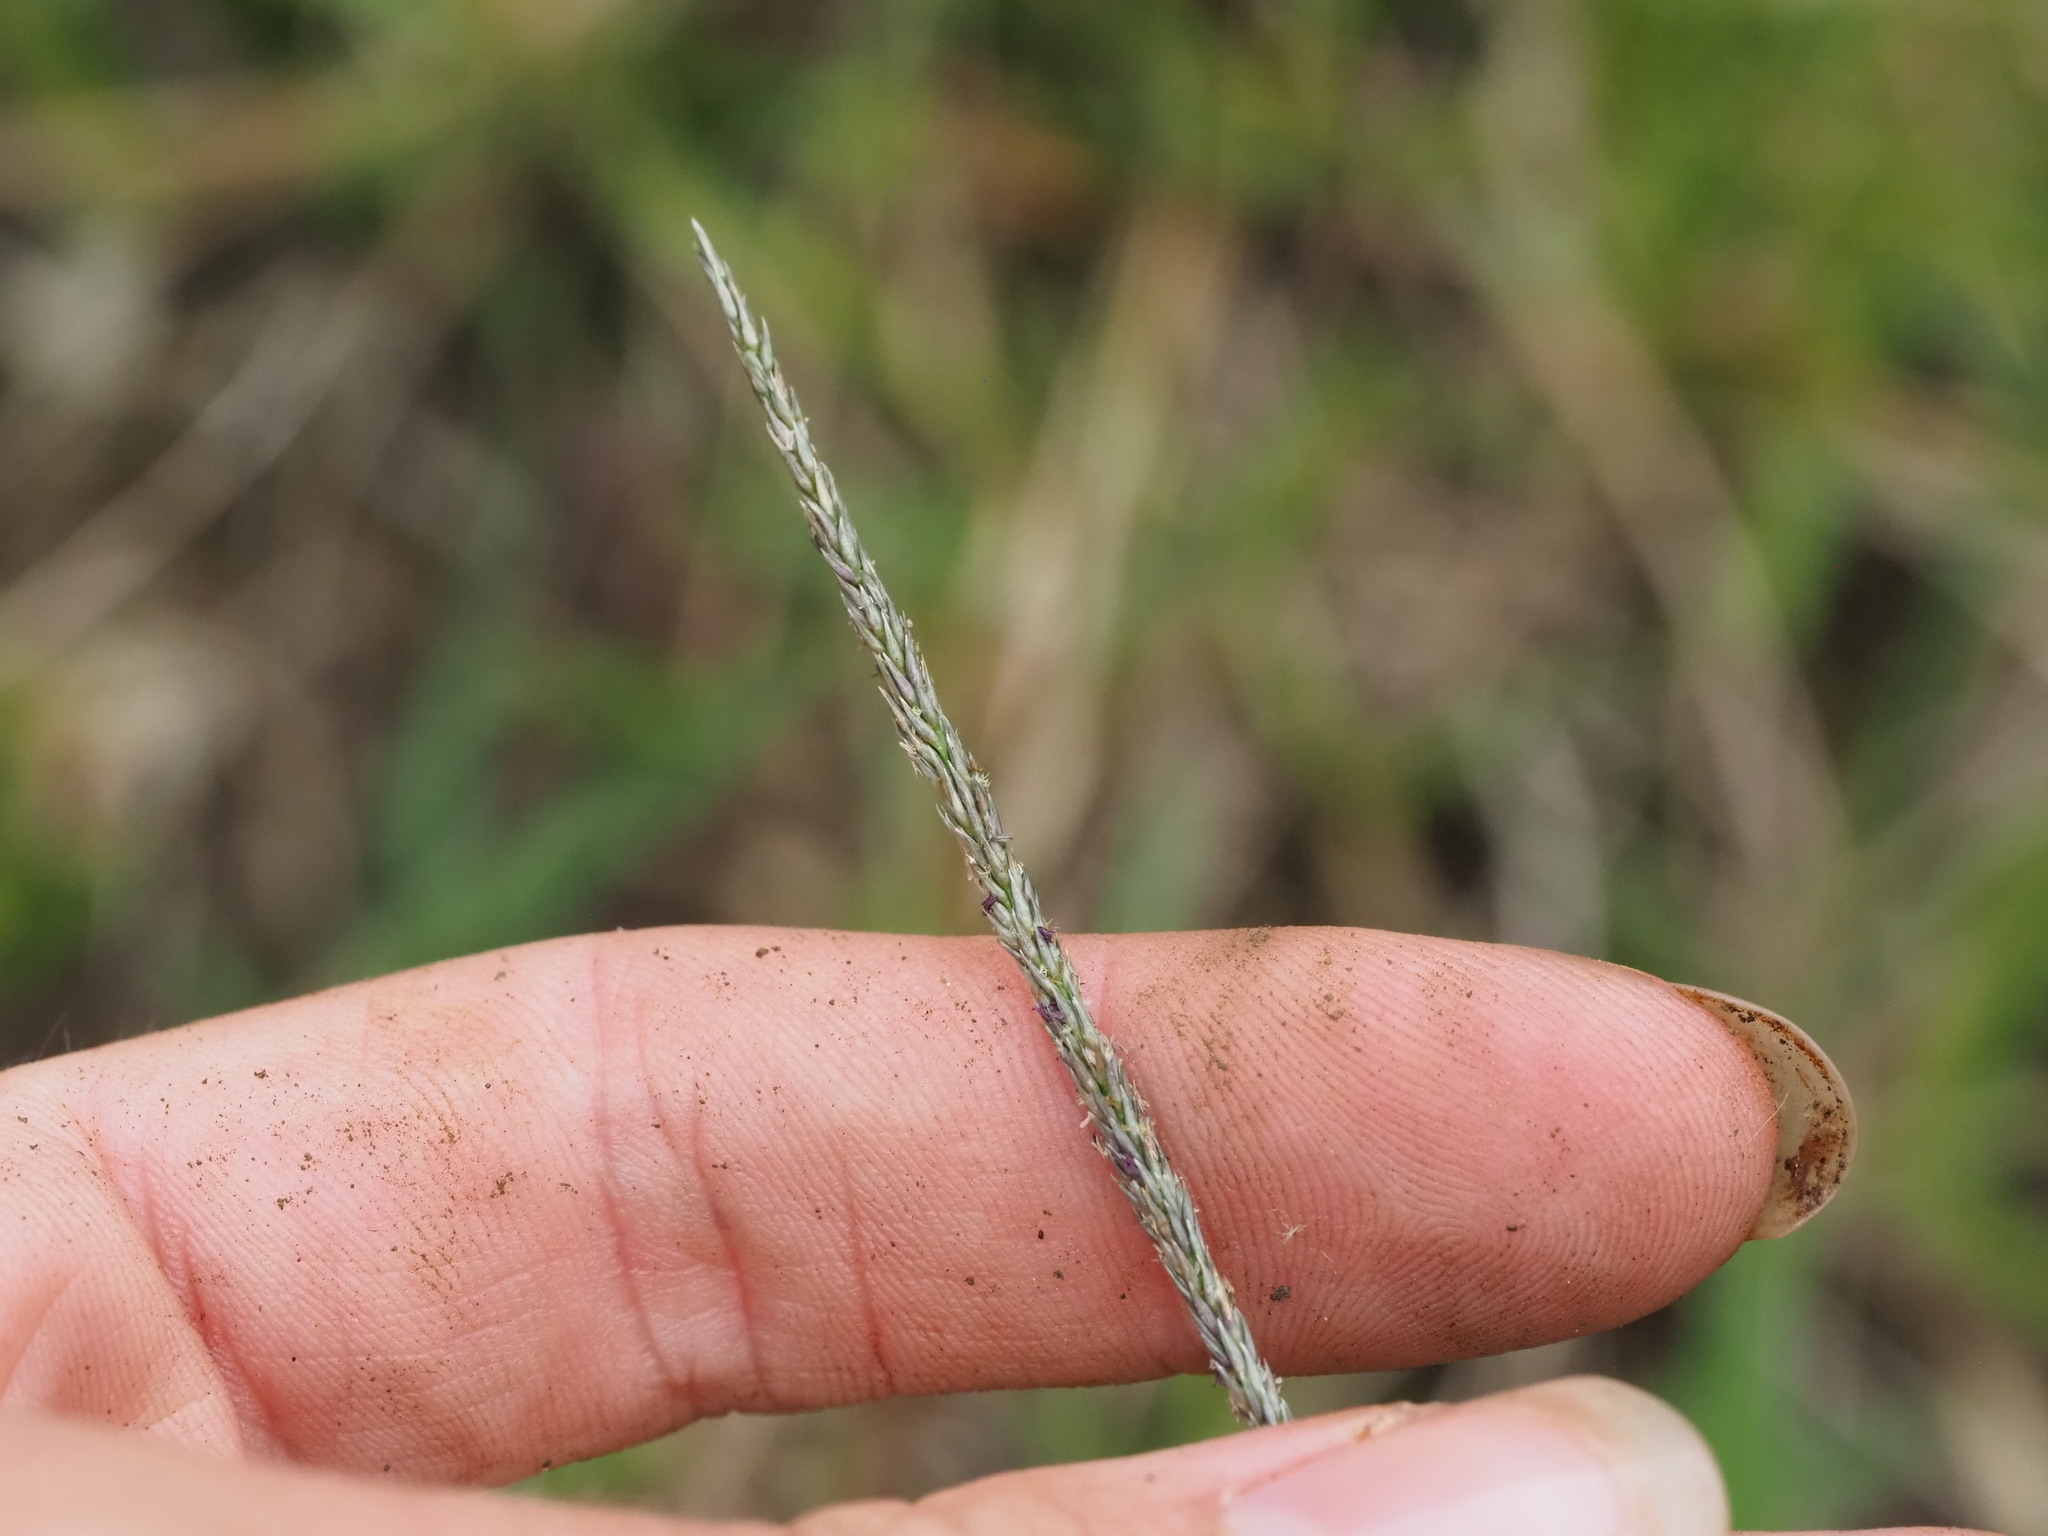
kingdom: Plantae
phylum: Tracheophyta
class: Liliopsida
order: Poales
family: Poaceae
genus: Sporobolus
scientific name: Sporobolus africanus
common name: African dropseed
